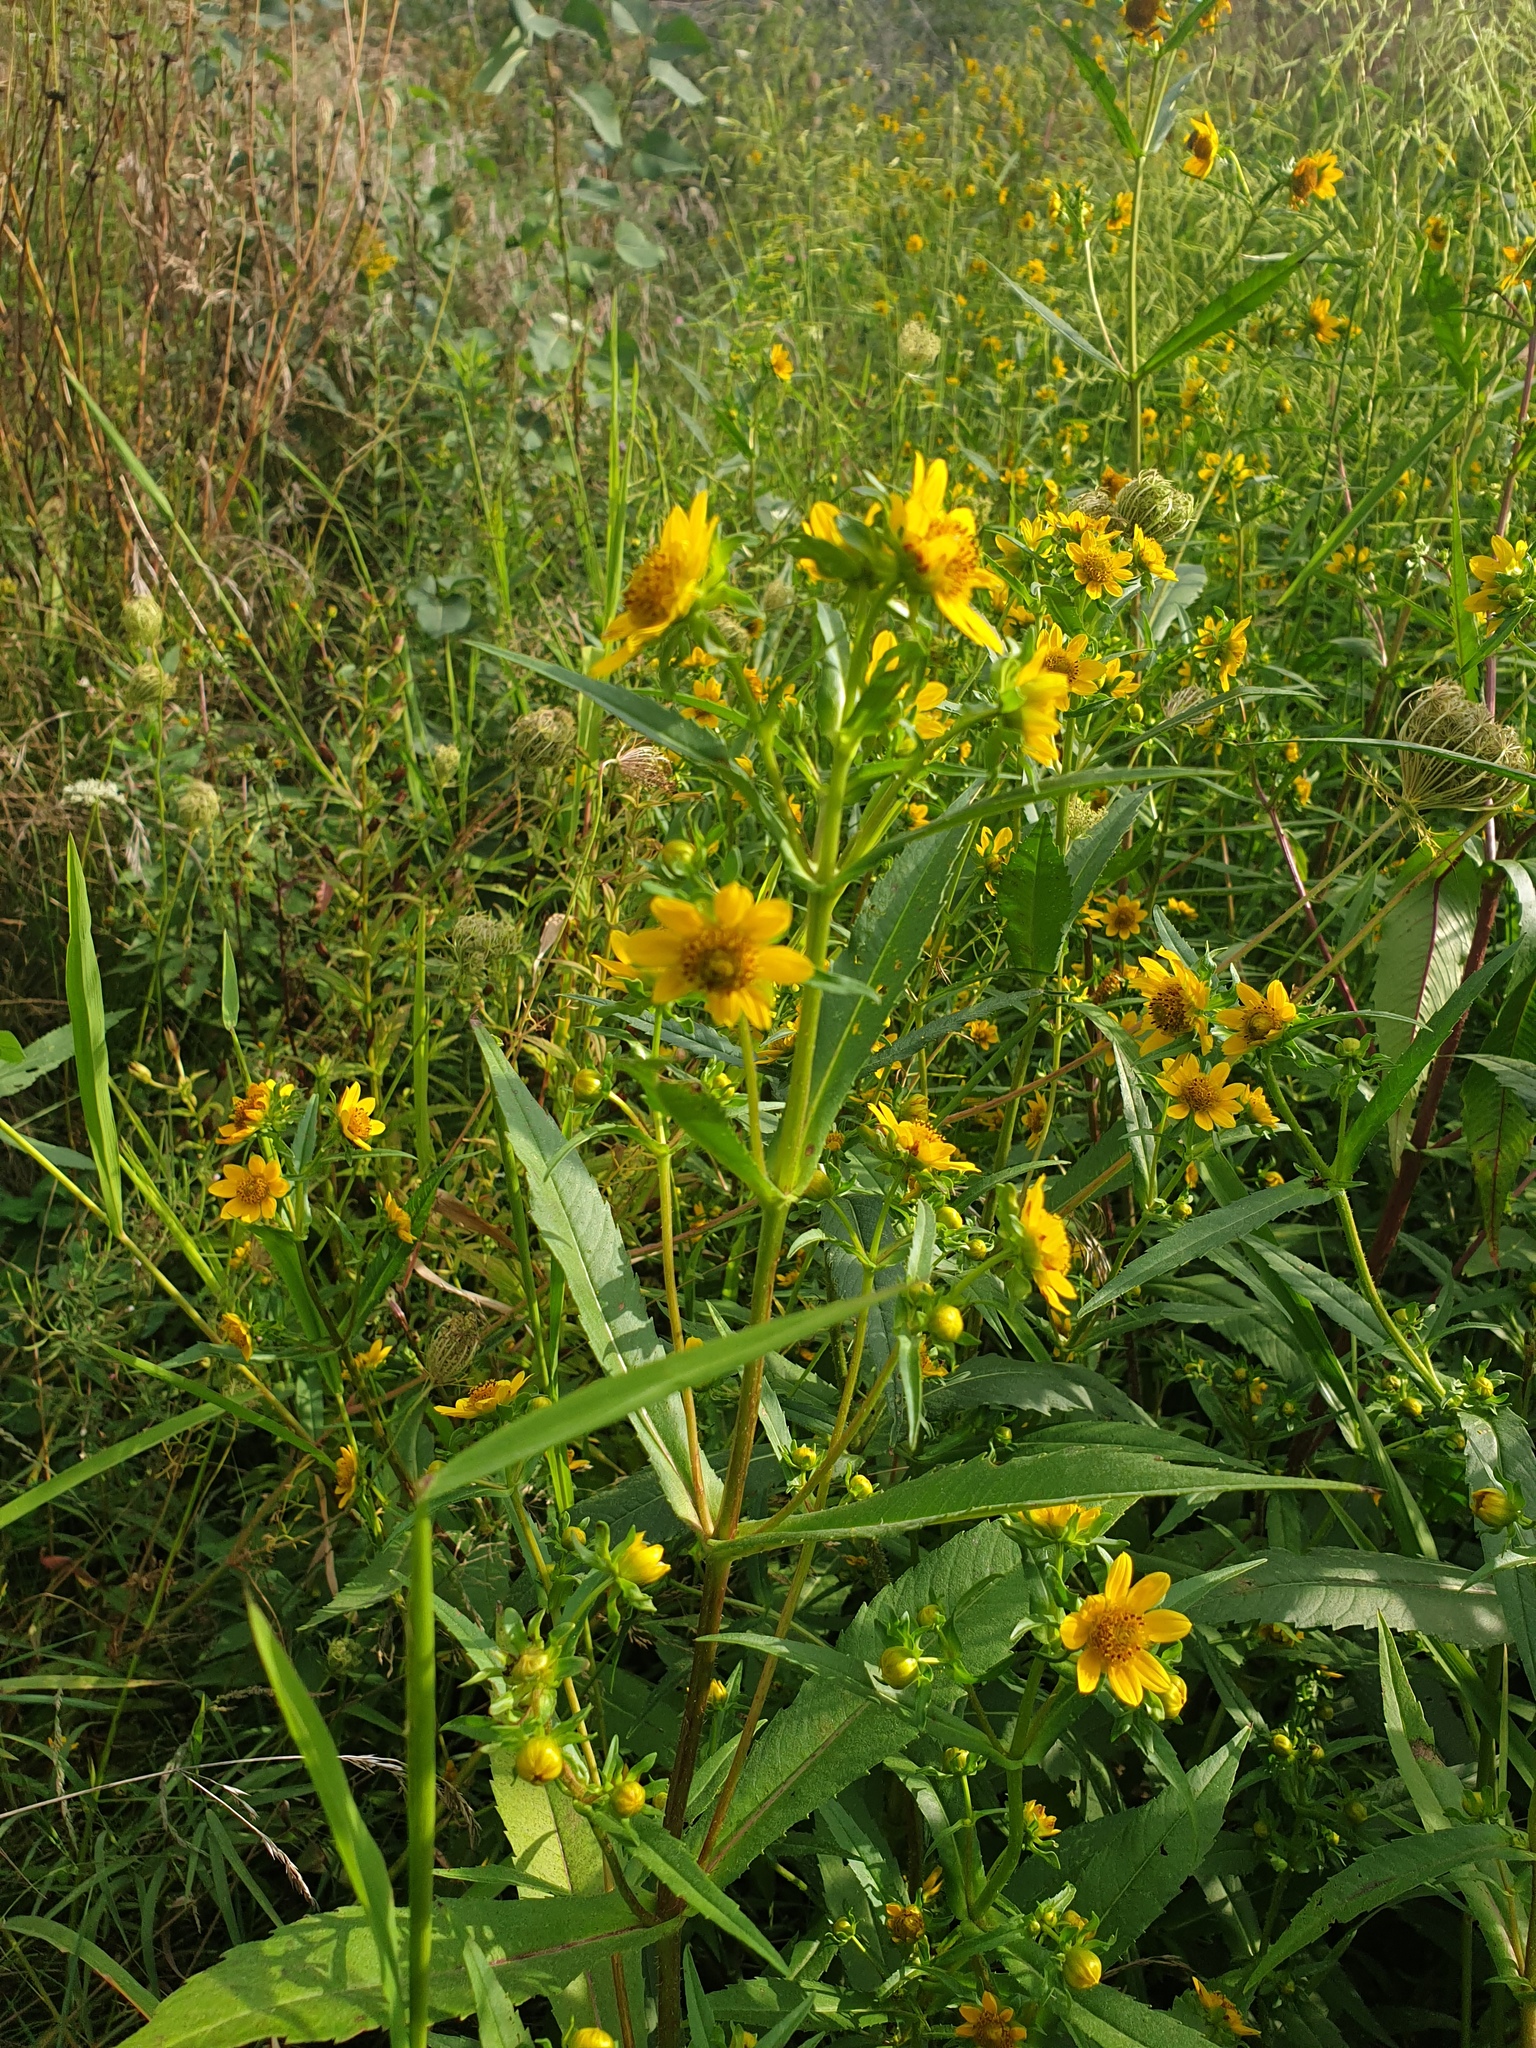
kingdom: Plantae
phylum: Tracheophyta
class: Magnoliopsida
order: Asterales
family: Asteraceae
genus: Bidens
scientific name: Bidens cernua
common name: Nodding bur-marigold
